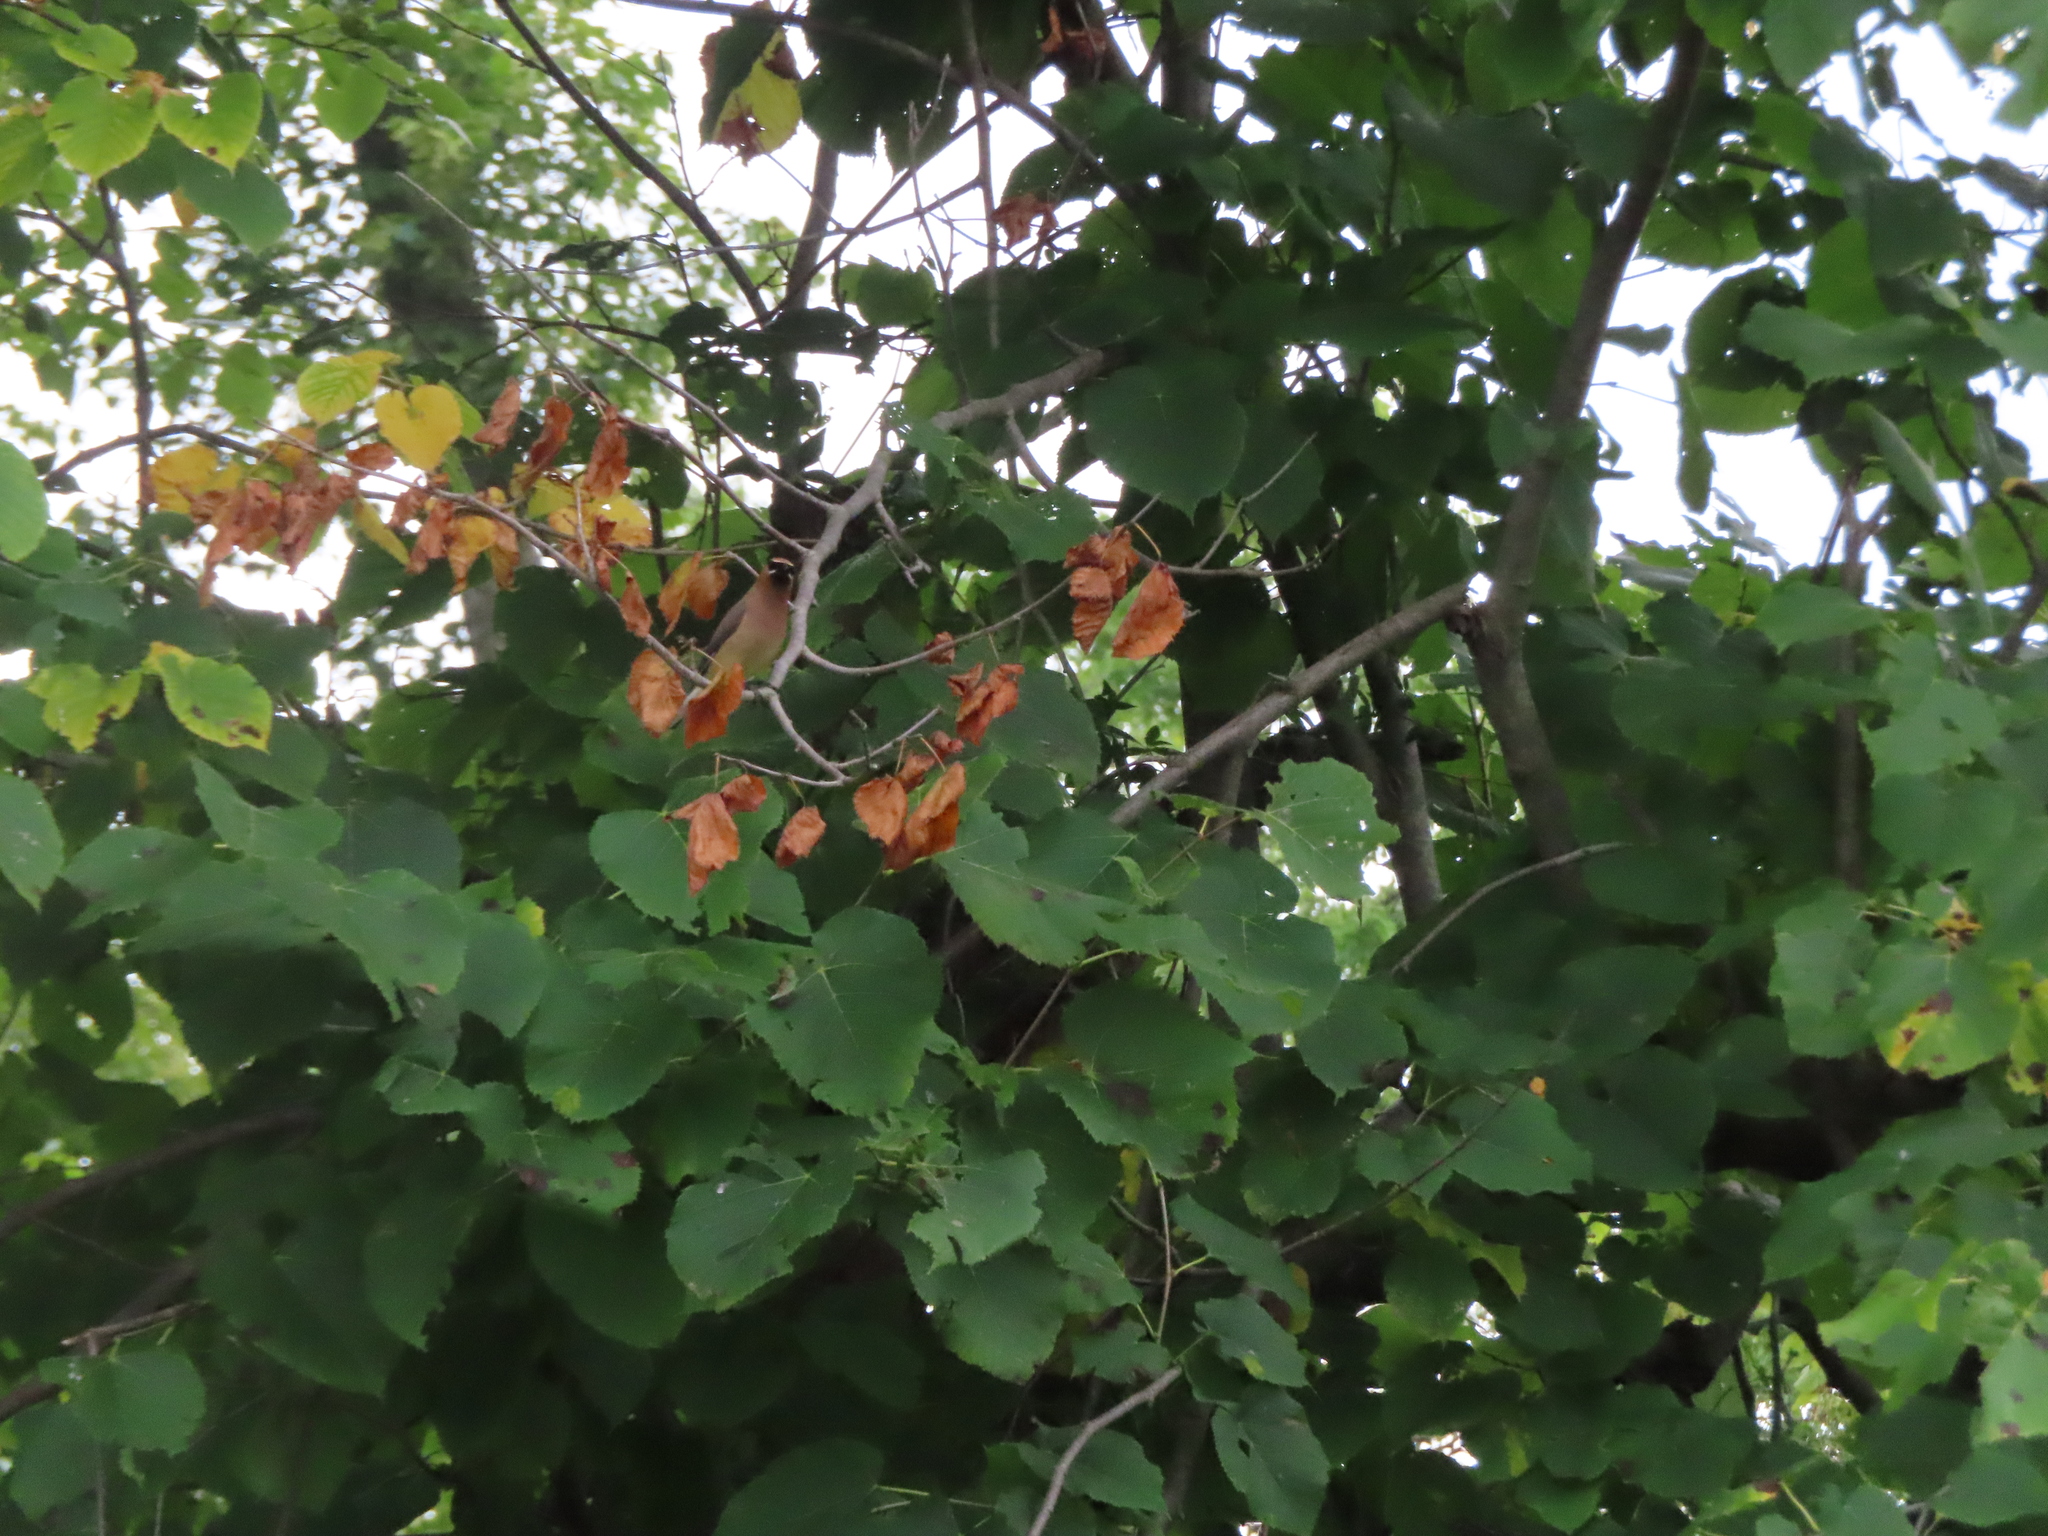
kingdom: Plantae
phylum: Tracheophyta
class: Magnoliopsida
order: Malvales
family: Malvaceae
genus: Tilia
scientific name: Tilia americana
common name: Basswood
